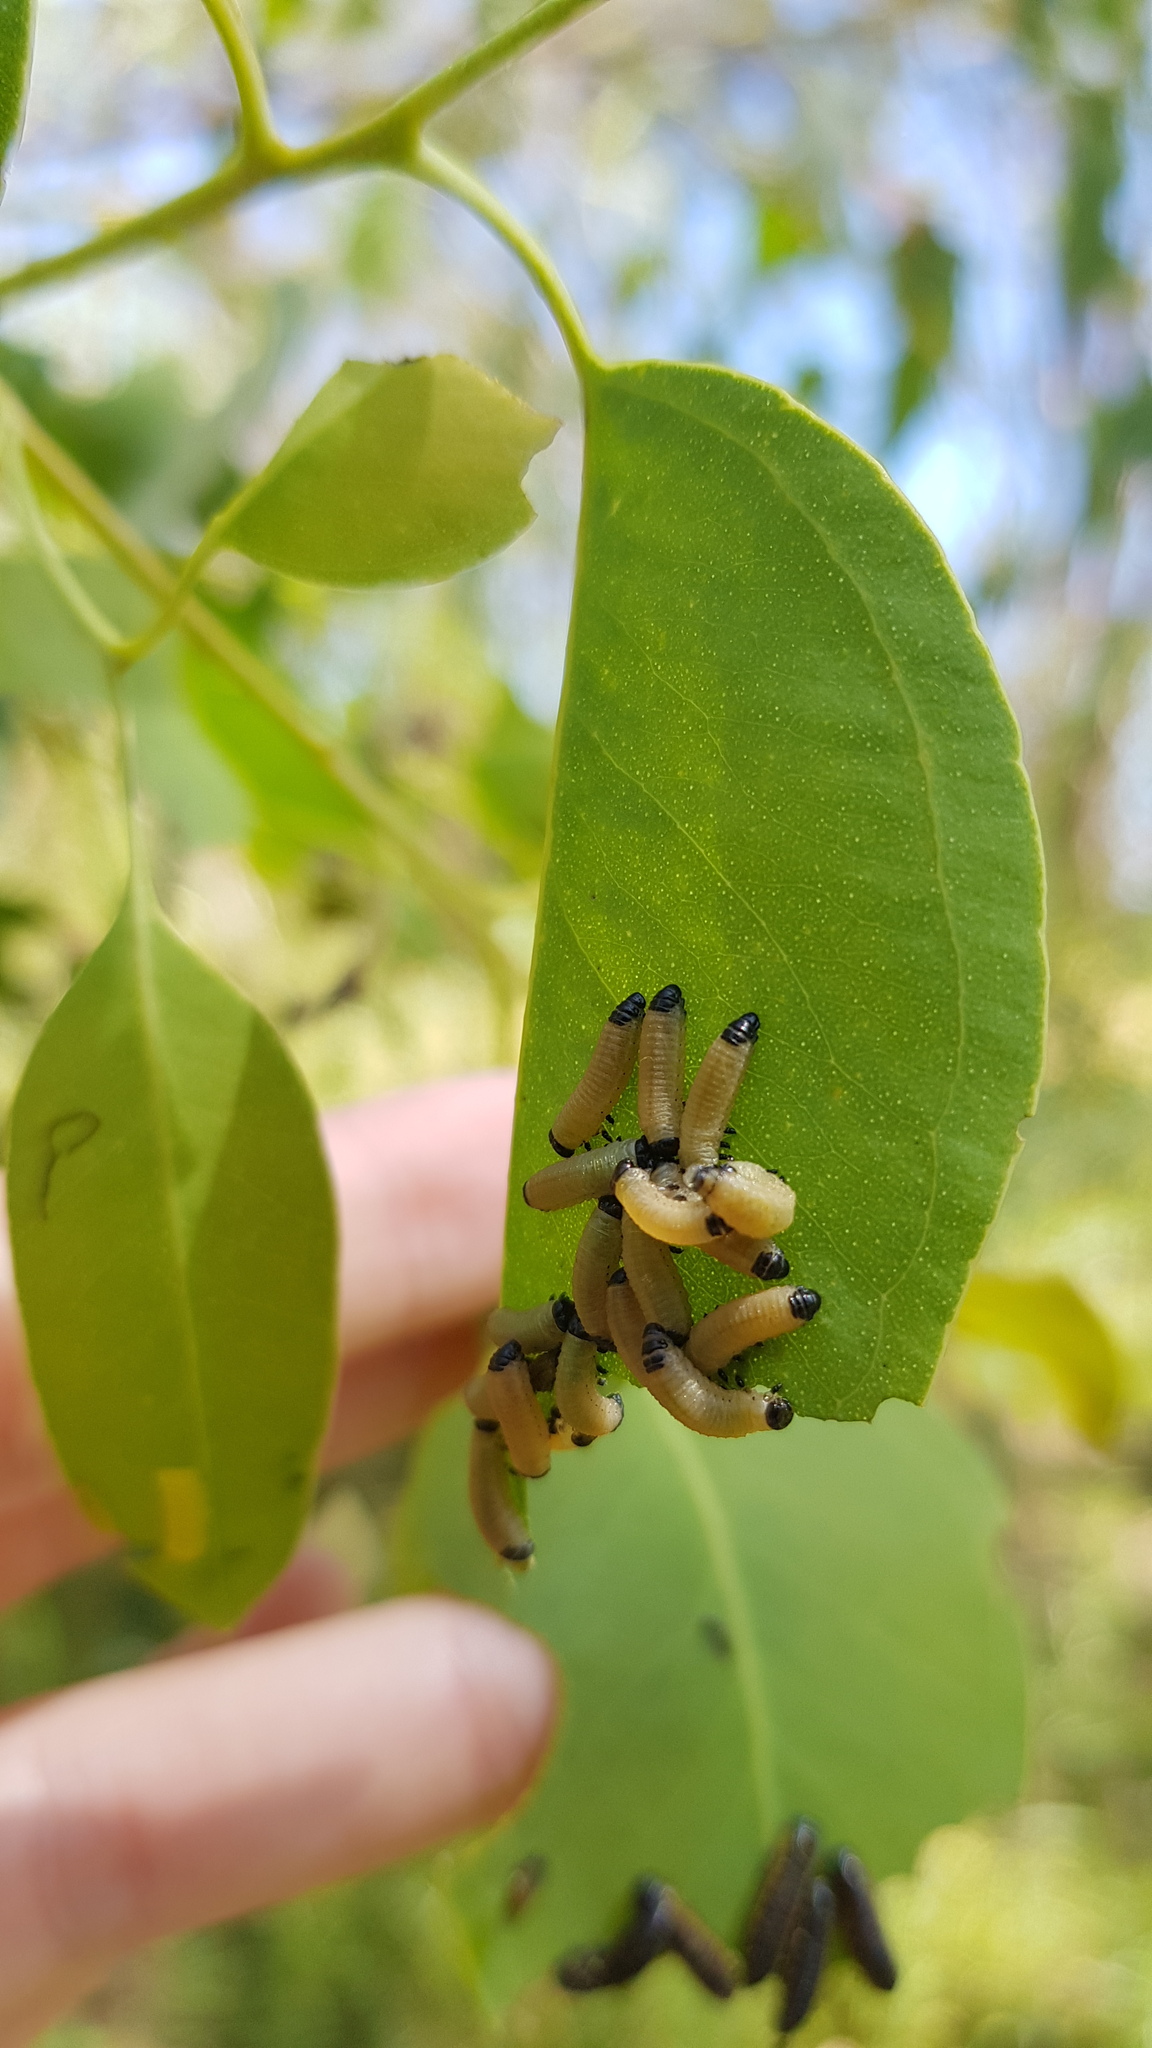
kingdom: Animalia
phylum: Arthropoda
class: Insecta
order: Coleoptera
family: Chrysomelidae
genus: Paropsisterna
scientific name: Paropsisterna cloelia
